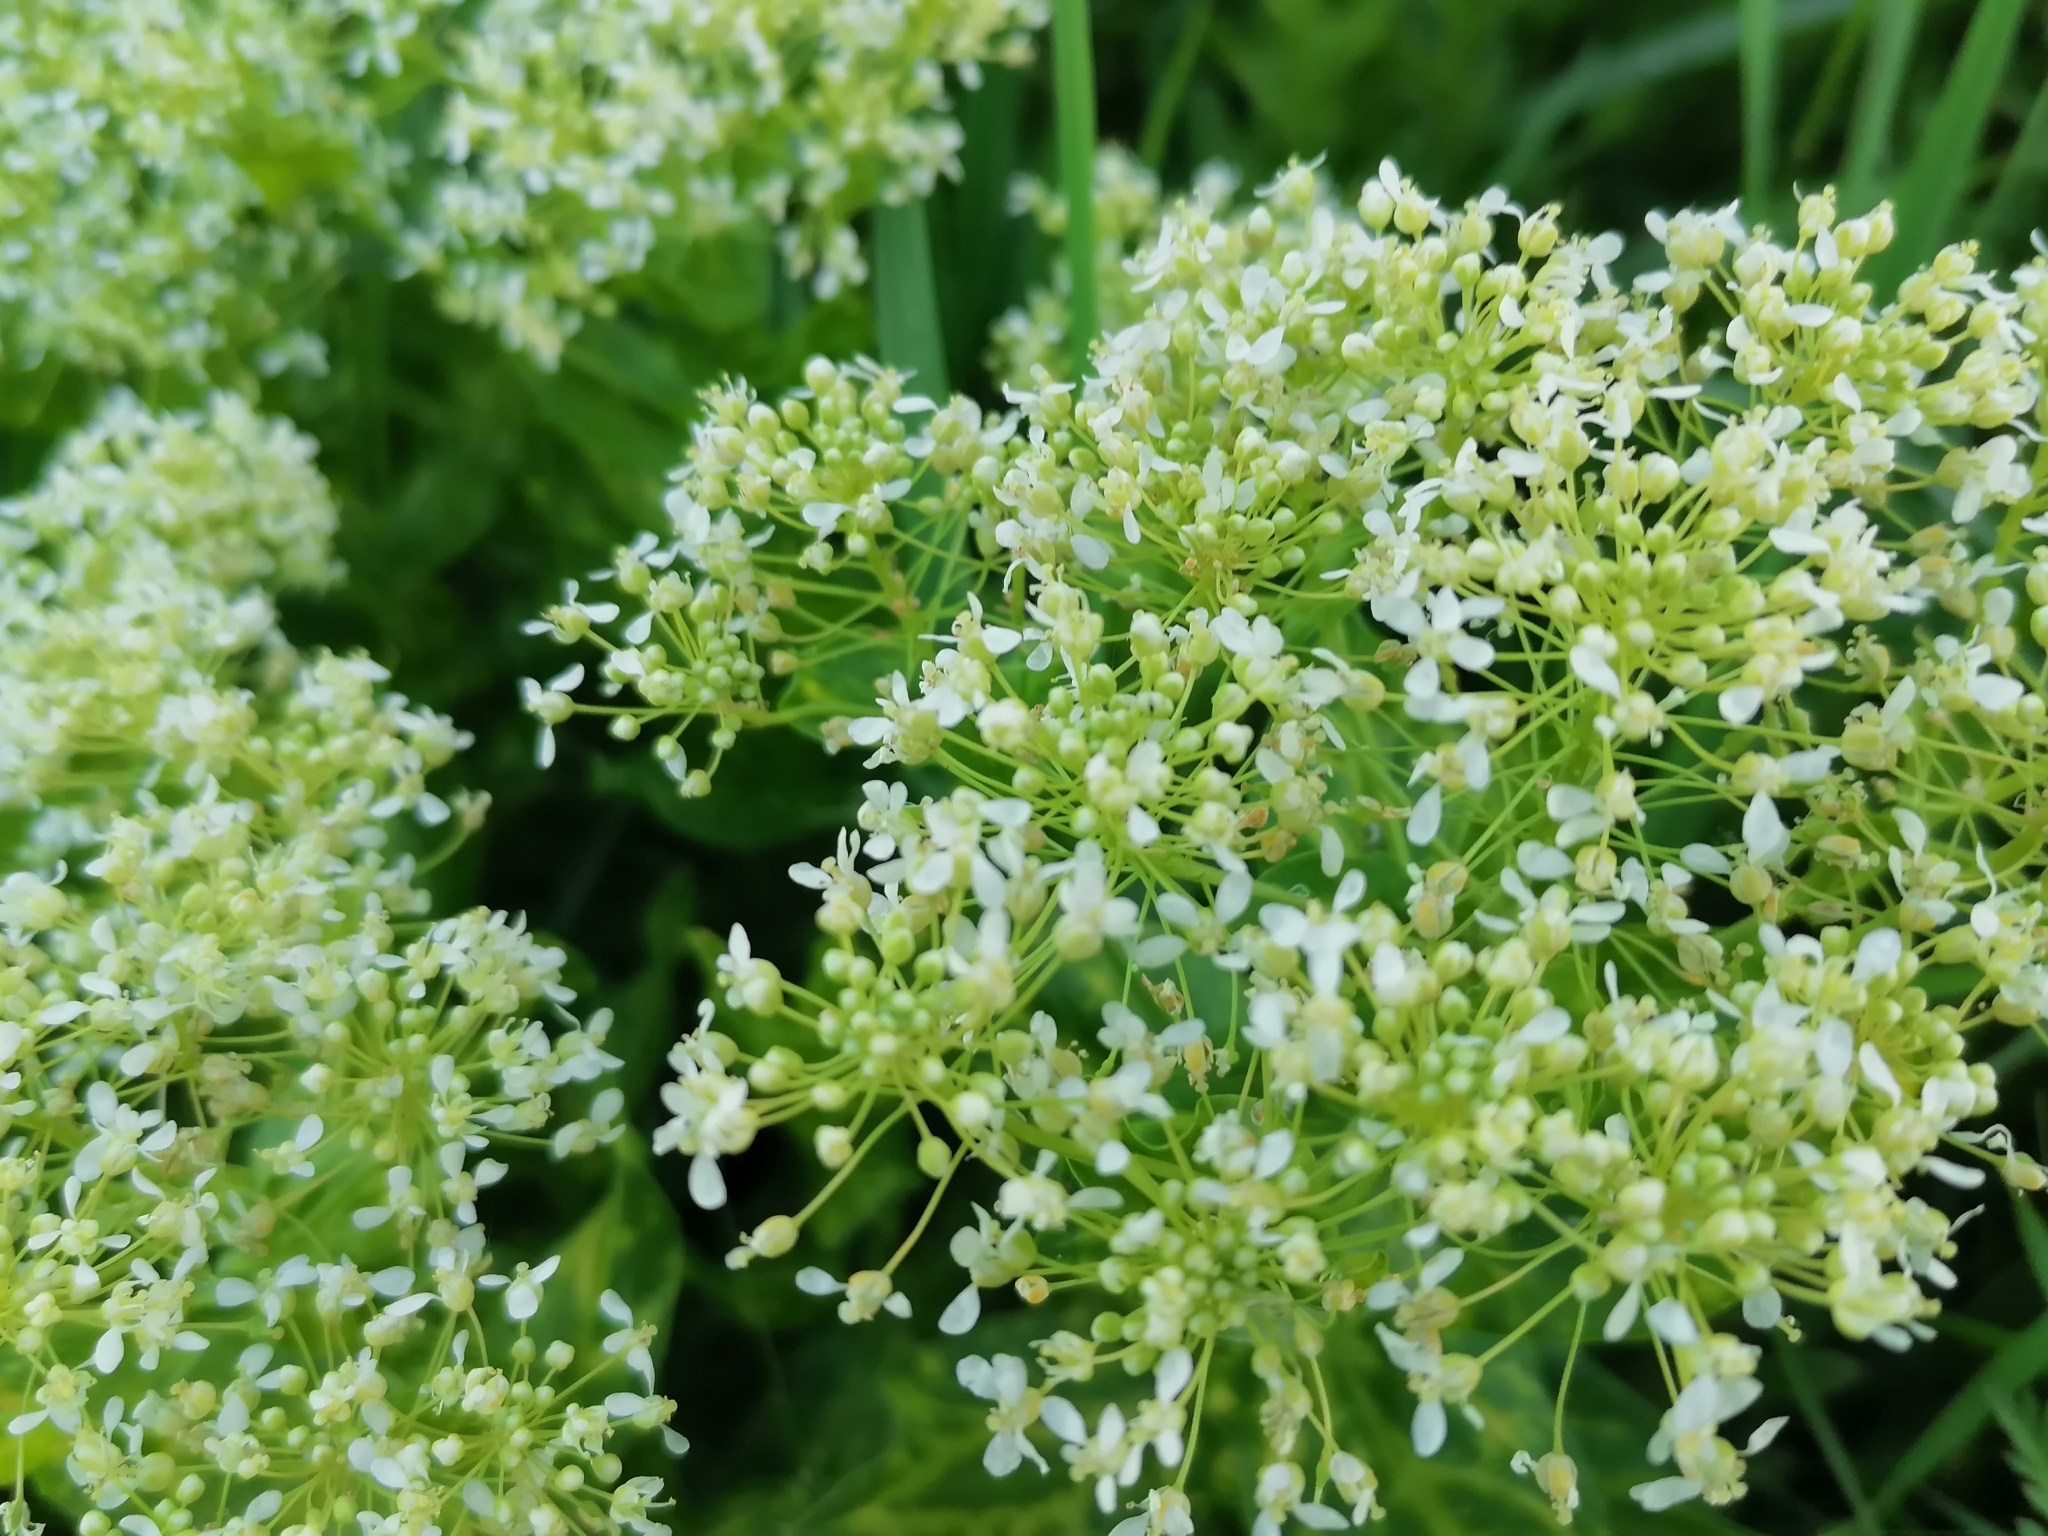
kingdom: Plantae
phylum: Tracheophyta
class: Magnoliopsida
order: Brassicales
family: Brassicaceae
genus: Lepidium
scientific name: Lepidium draba
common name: Hoary cress
